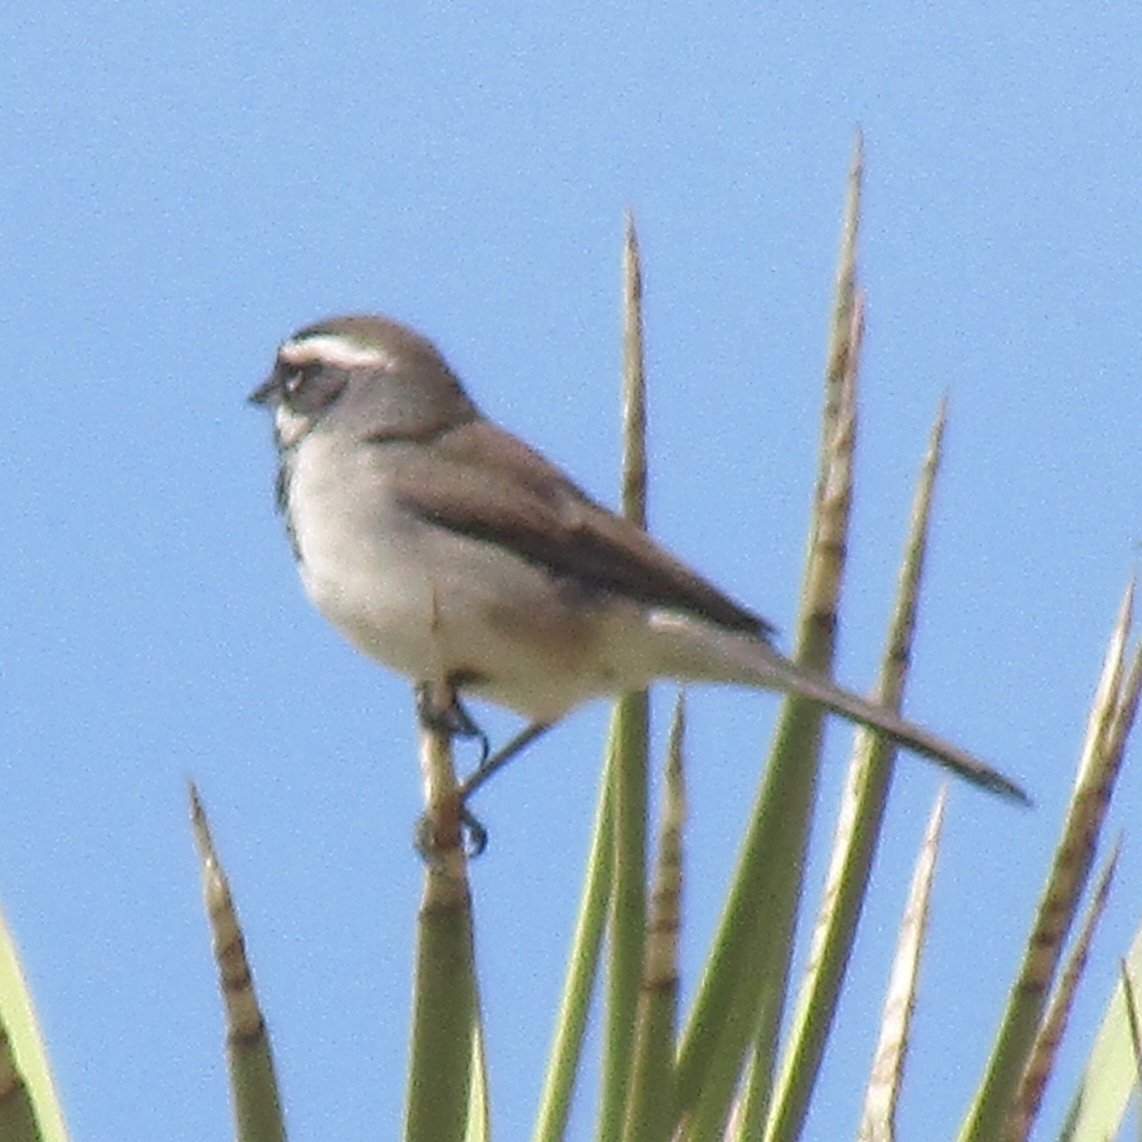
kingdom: Animalia
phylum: Chordata
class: Aves
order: Passeriformes
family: Passerellidae
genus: Amphispiza
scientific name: Amphispiza bilineata
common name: Black-throated sparrow
